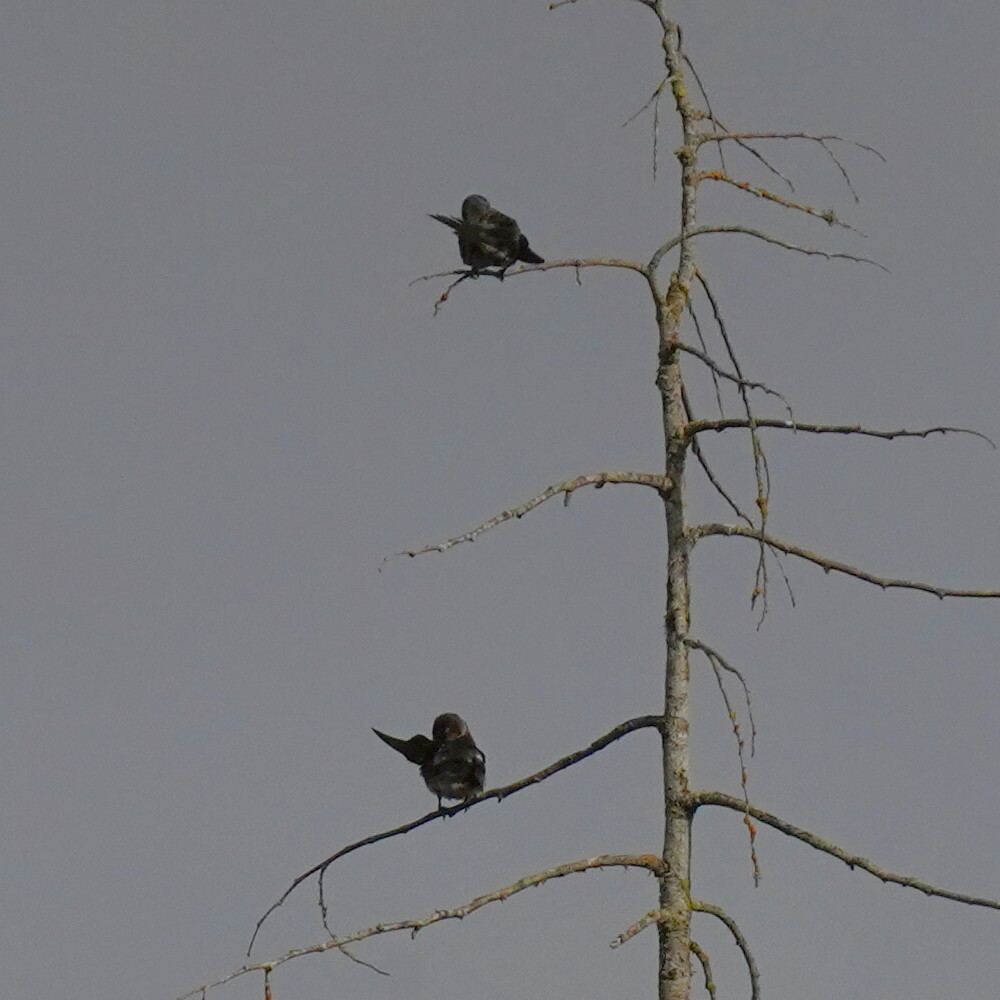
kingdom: Animalia
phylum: Chordata
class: Aves
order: Passeriformes
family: Hirundinidae
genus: Progne
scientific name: Progne subis
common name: Purple martin
